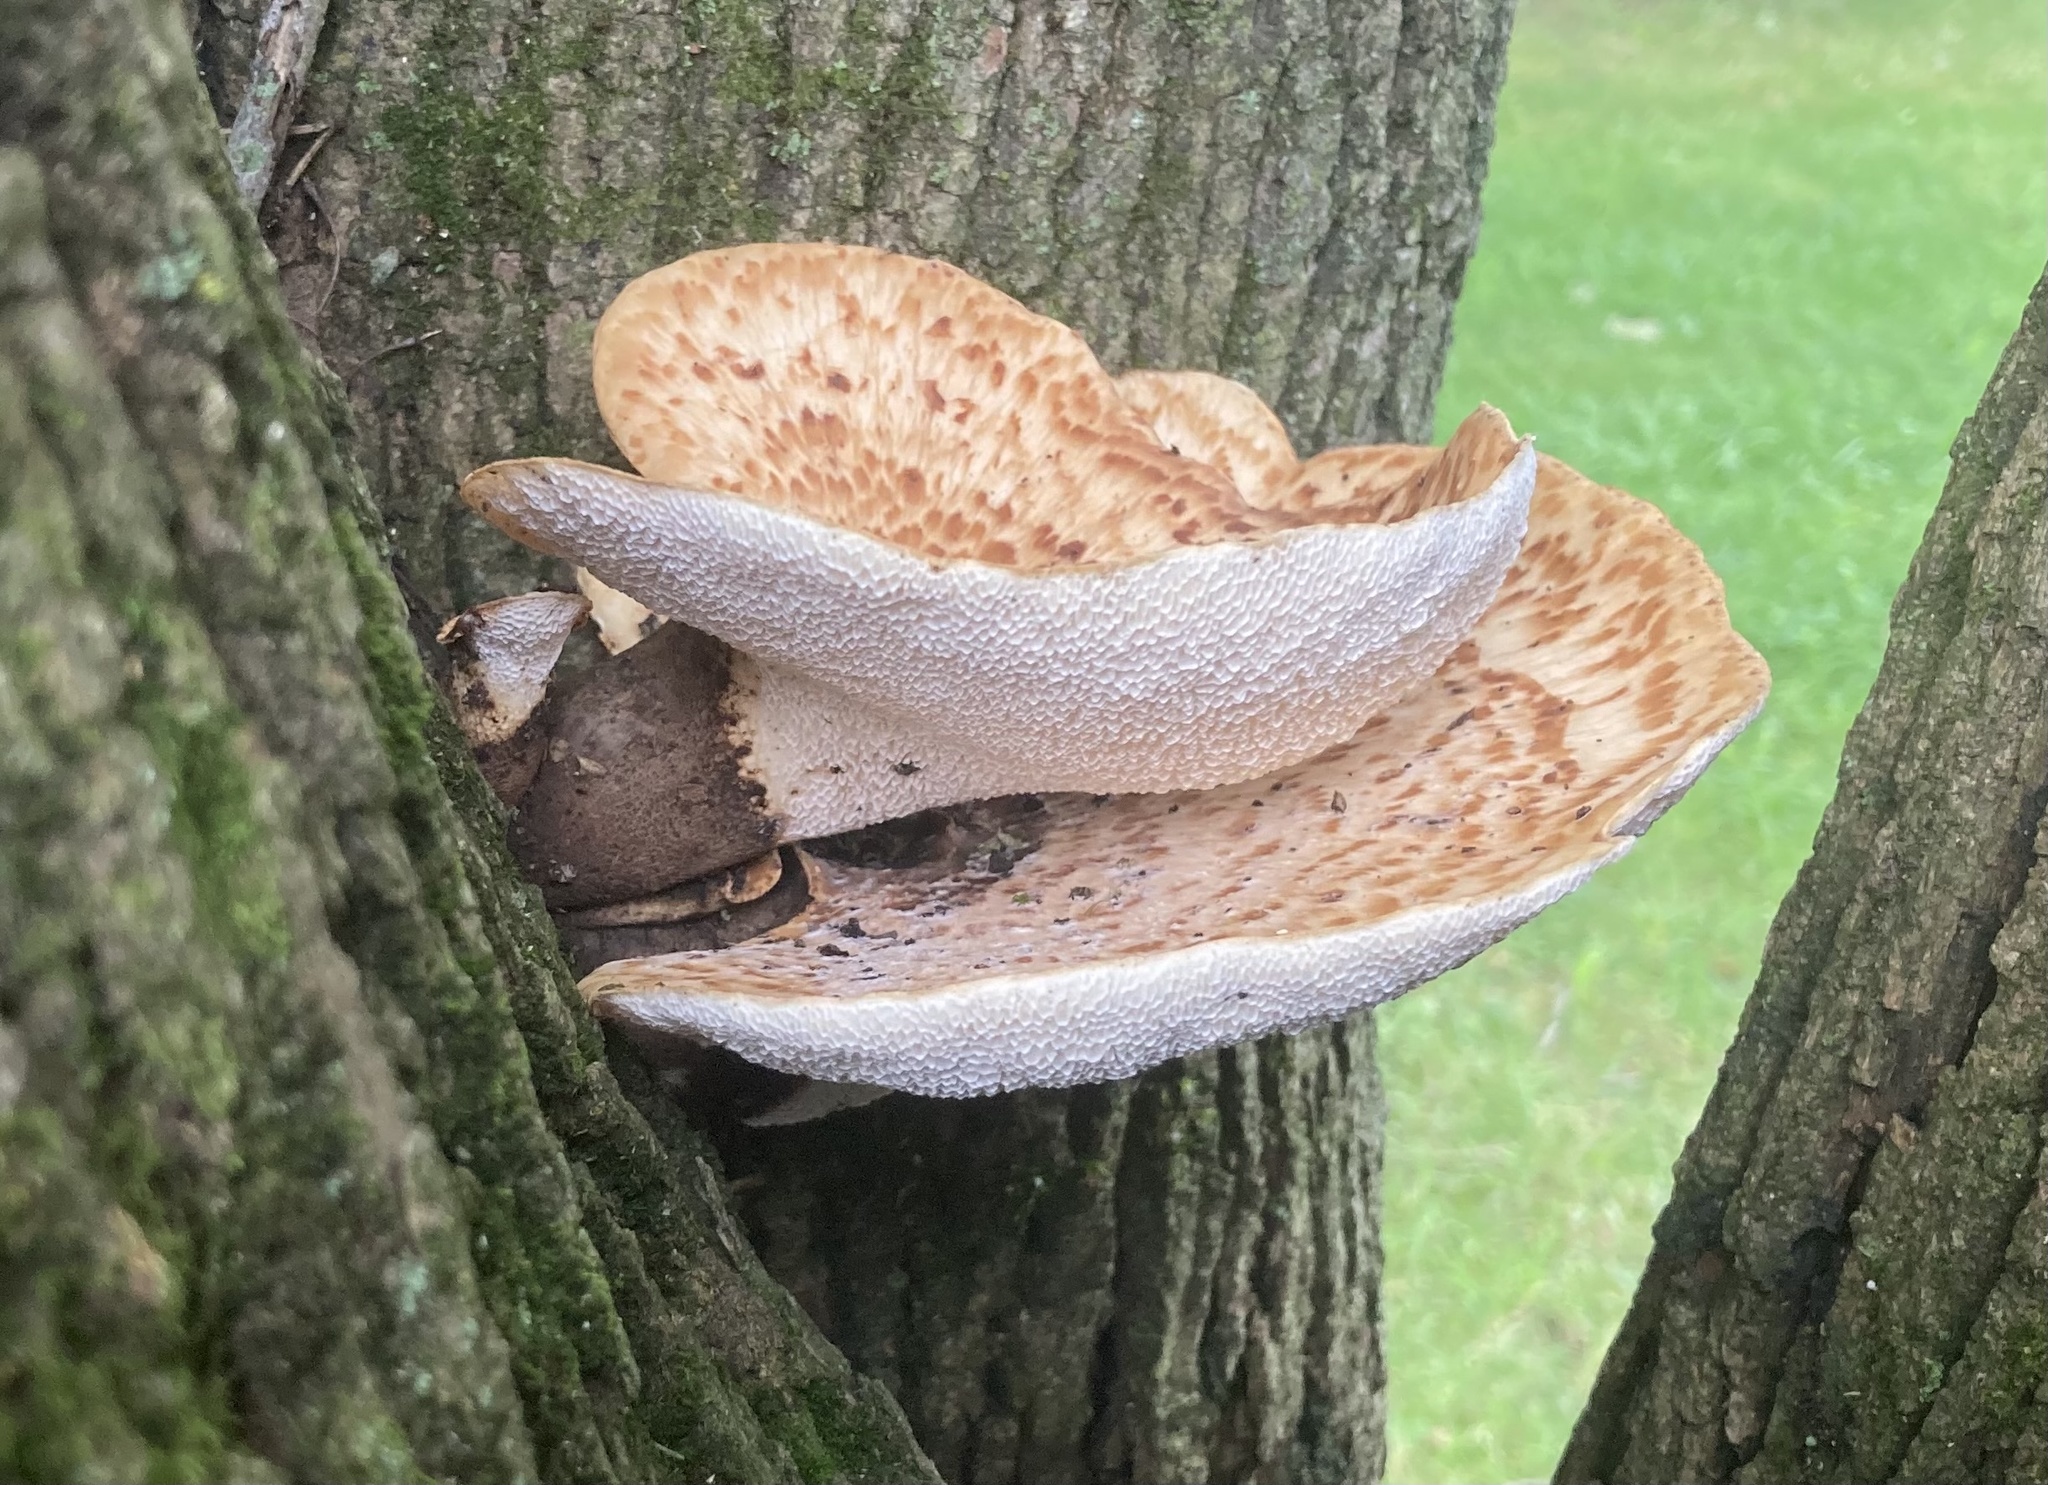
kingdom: Fungi
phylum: Basidiomycota
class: Agaricomycetes
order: Polyporales
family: Polyporaceae
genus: Cerioporus
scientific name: Cerioporus squamosus
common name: Dryad's saddle
